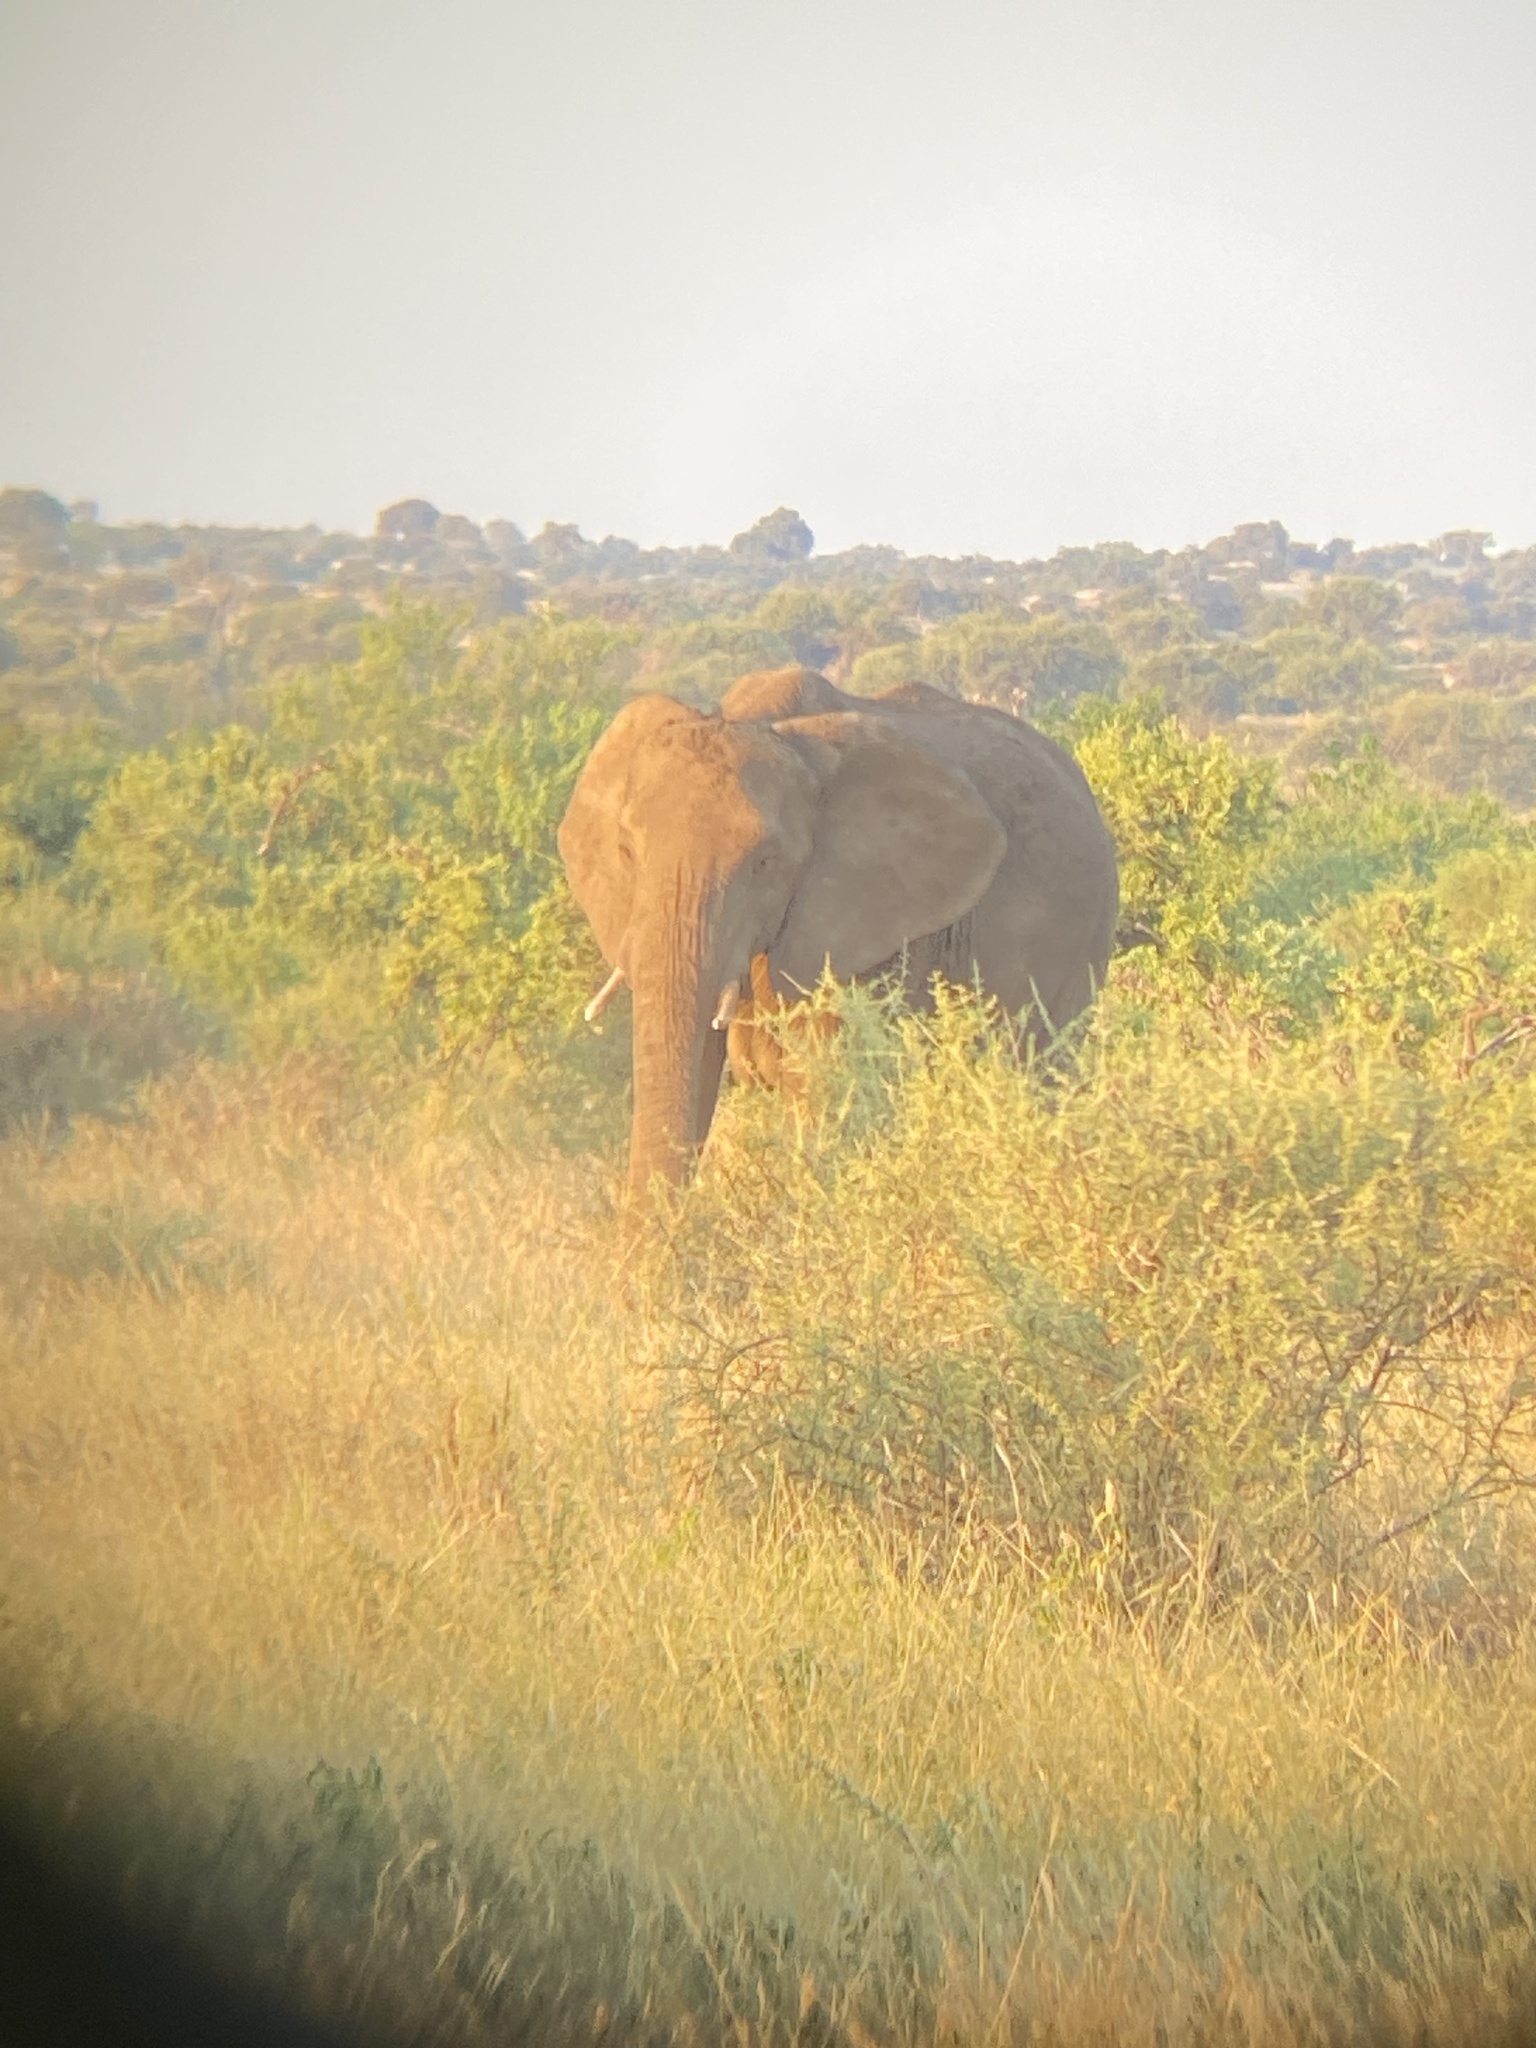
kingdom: Animalia
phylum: Chordata
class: Mammalia
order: Proboscidea
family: Elephantidae
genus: Loxodonta
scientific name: Loxodonta africana
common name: African elephant
